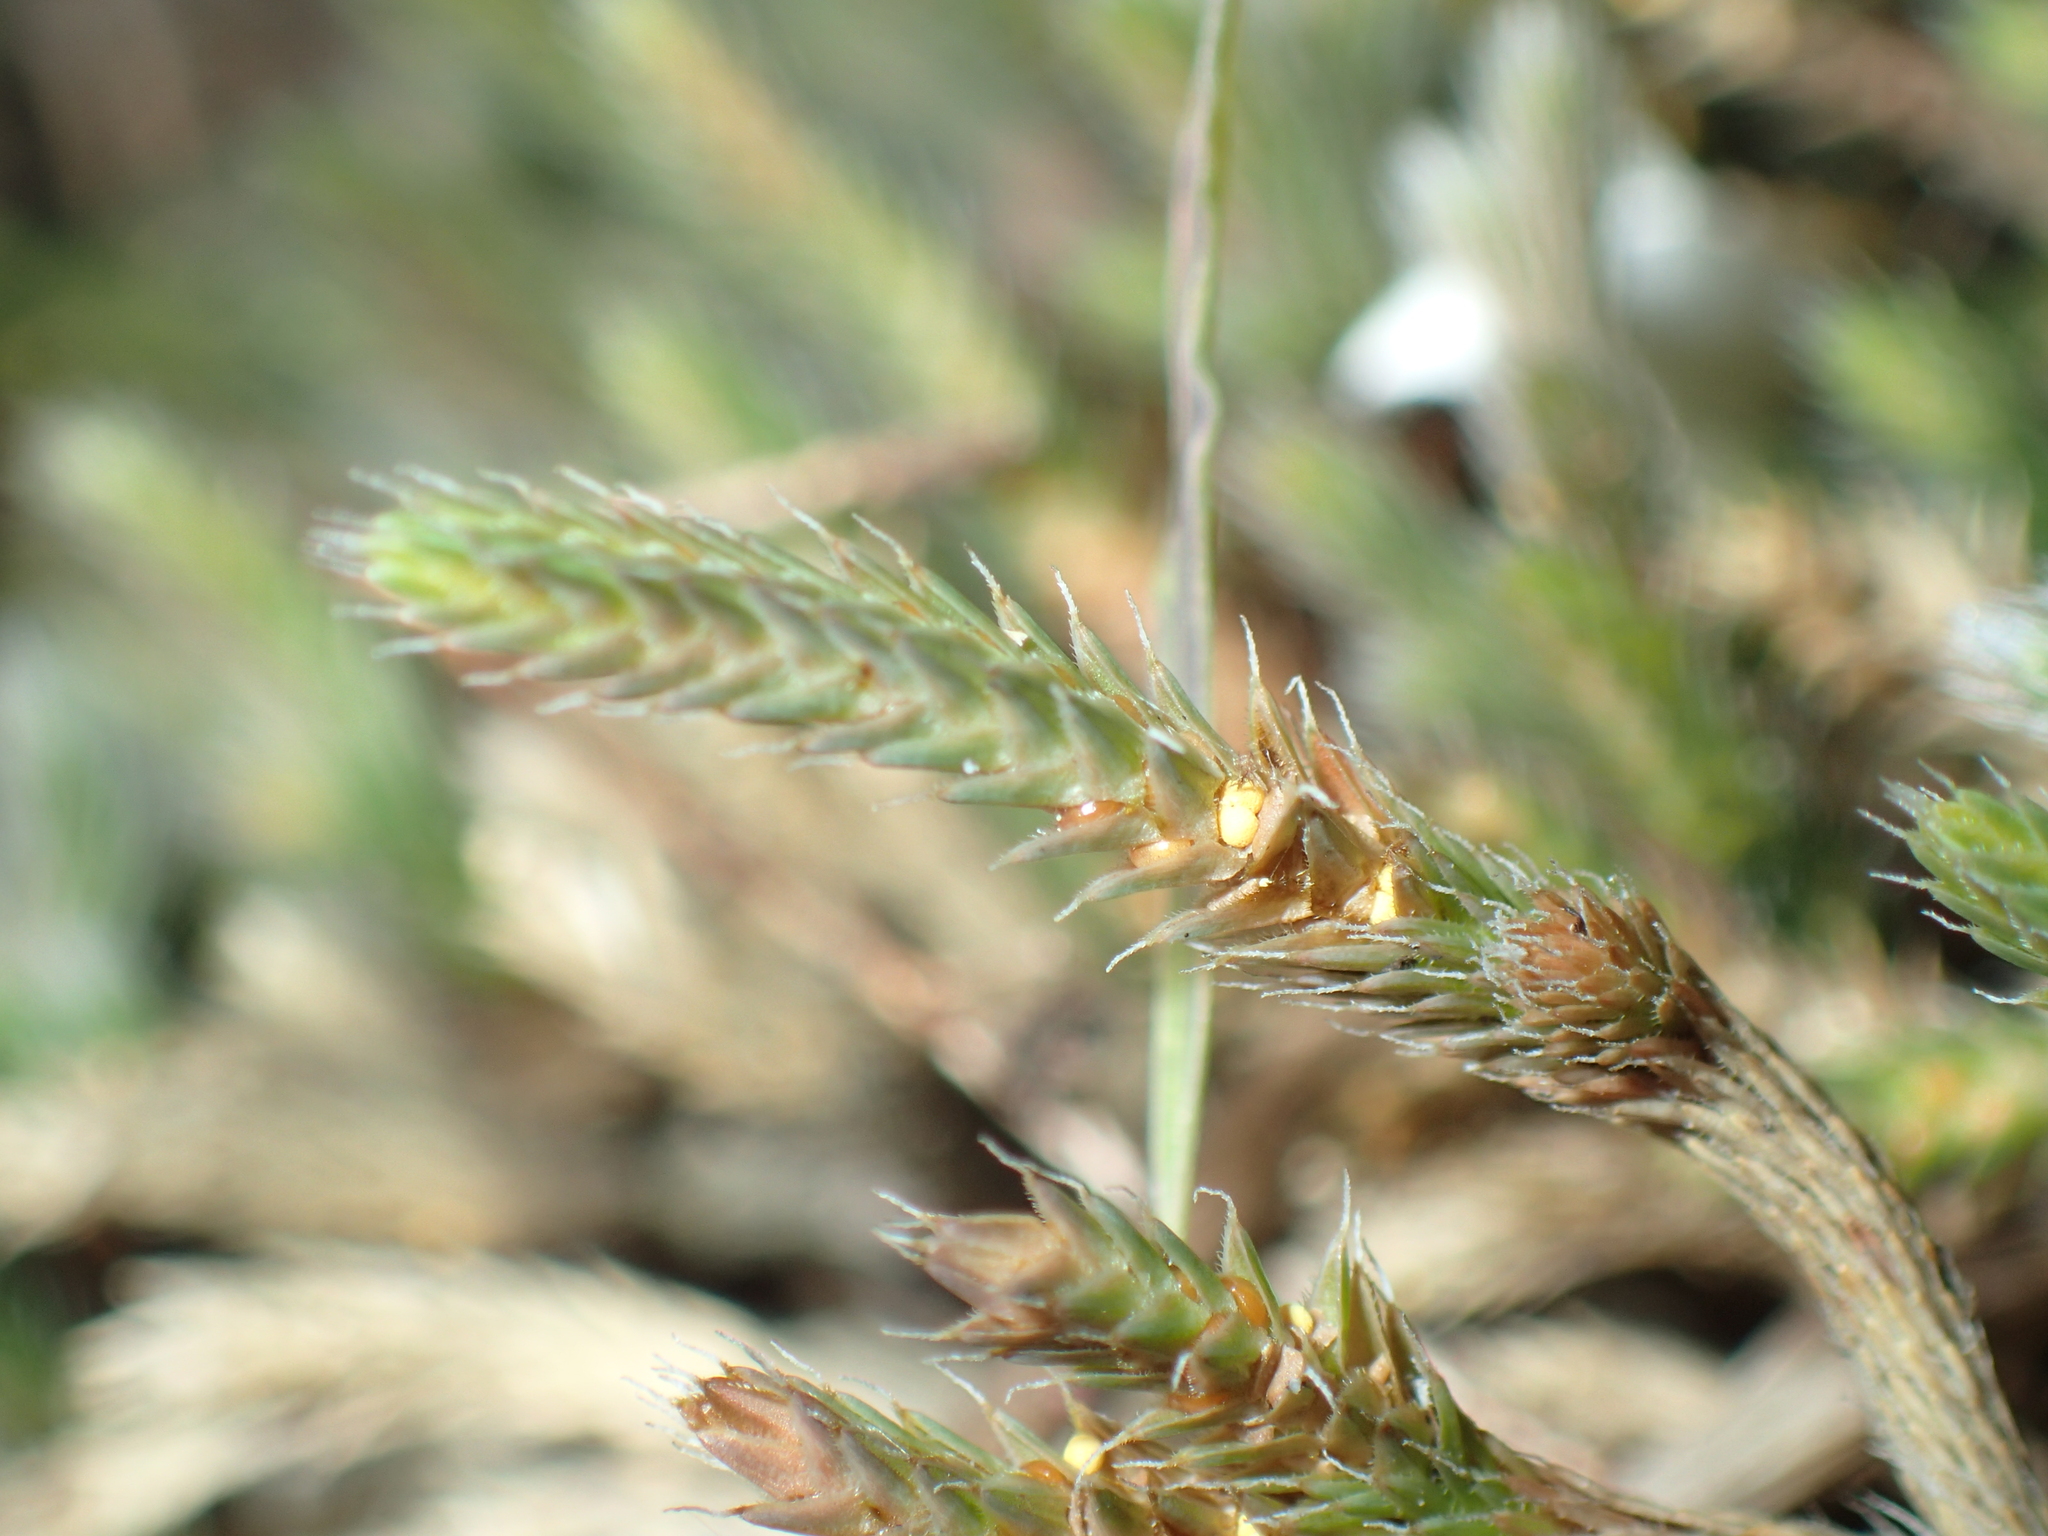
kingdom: Plantae
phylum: Tracheophyta
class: Lycopodiopsida
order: Selaginellales
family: Selaginellaceae
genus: Selaginella
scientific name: Selaginella rupestris
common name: Dwarf spikemoss
